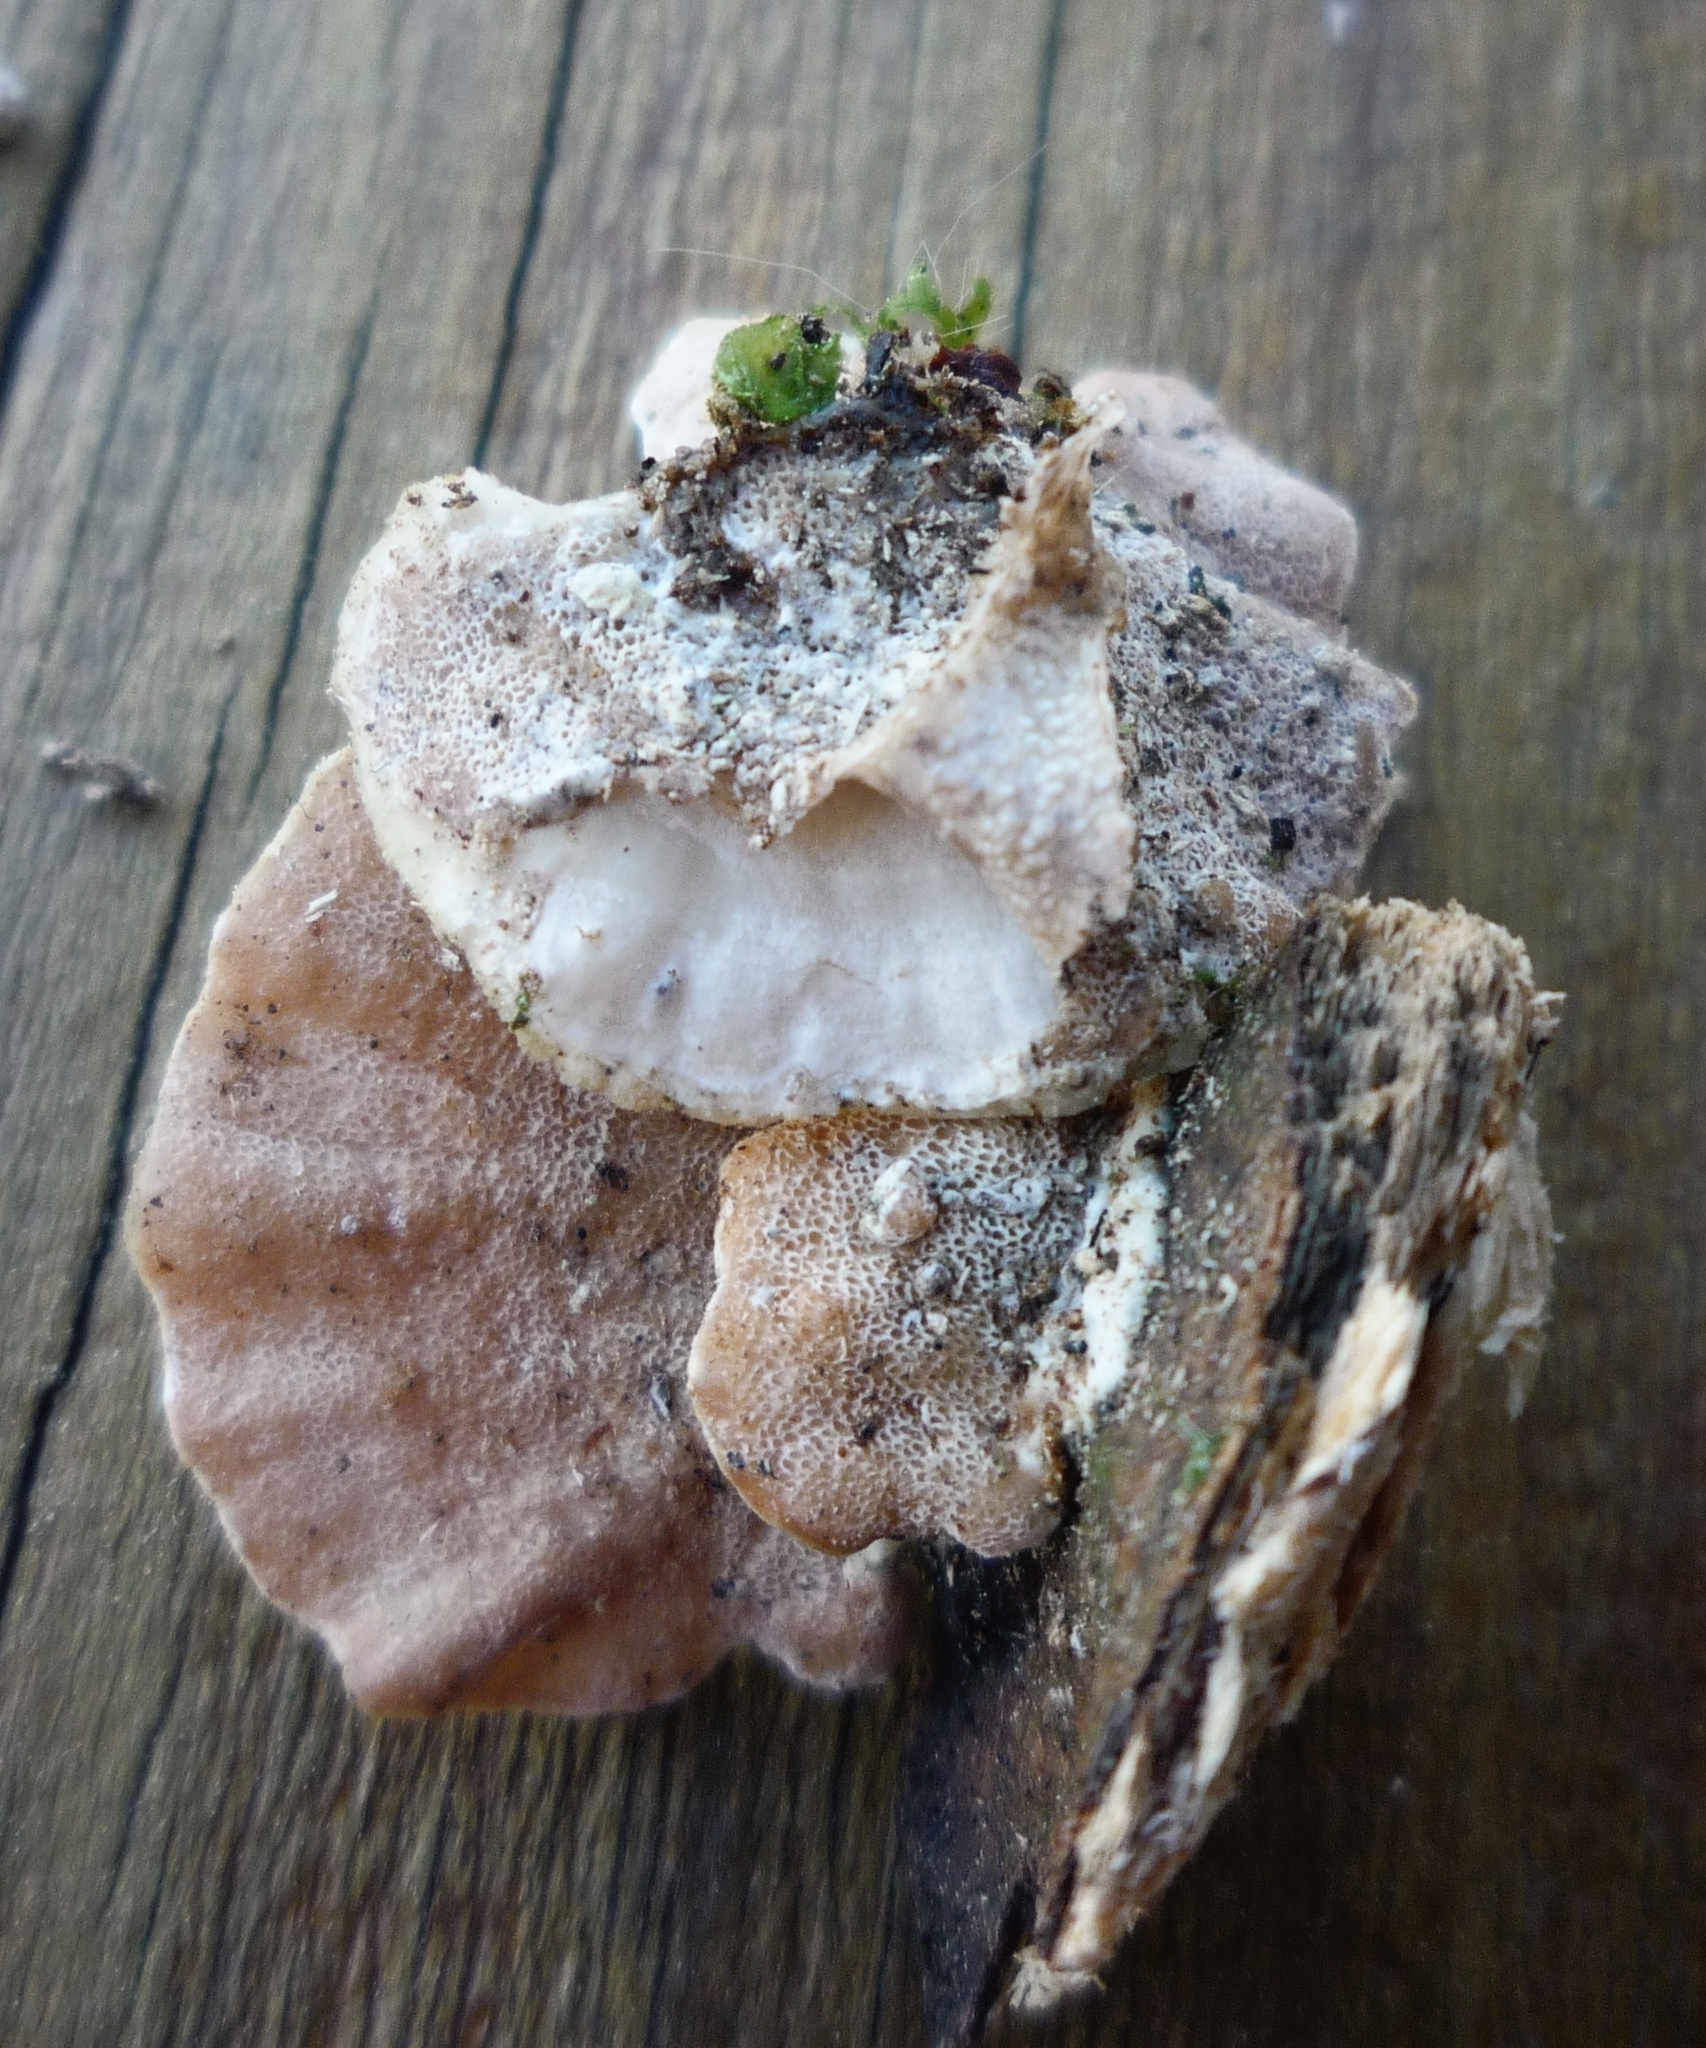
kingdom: Fungi
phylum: Basidiomycota
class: Agaricomycetes
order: Polyporales
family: Irpicaceae
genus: Vitreoporus
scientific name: Vitreoporus dichrous
